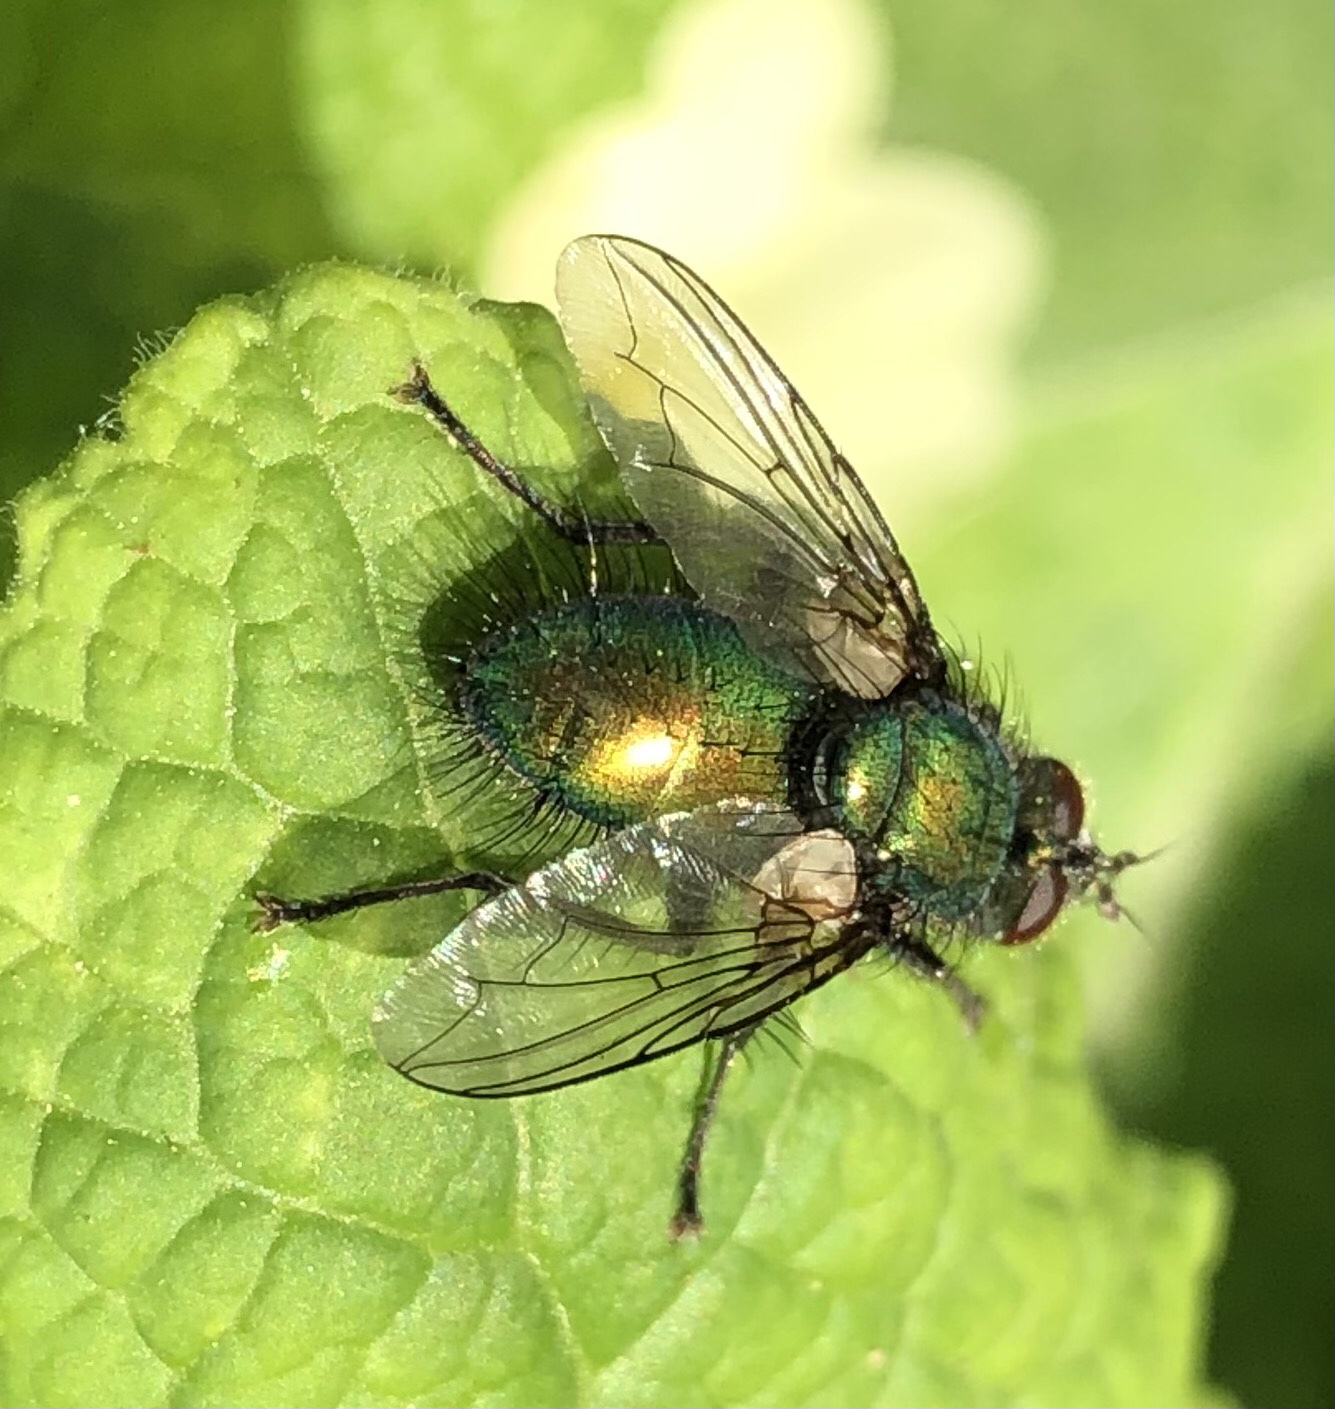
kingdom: Animalia
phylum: Arthropoda
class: Insecta
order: Diptera
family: Tachinidae
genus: Gymnocheta
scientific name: Gymnocheta viridis
